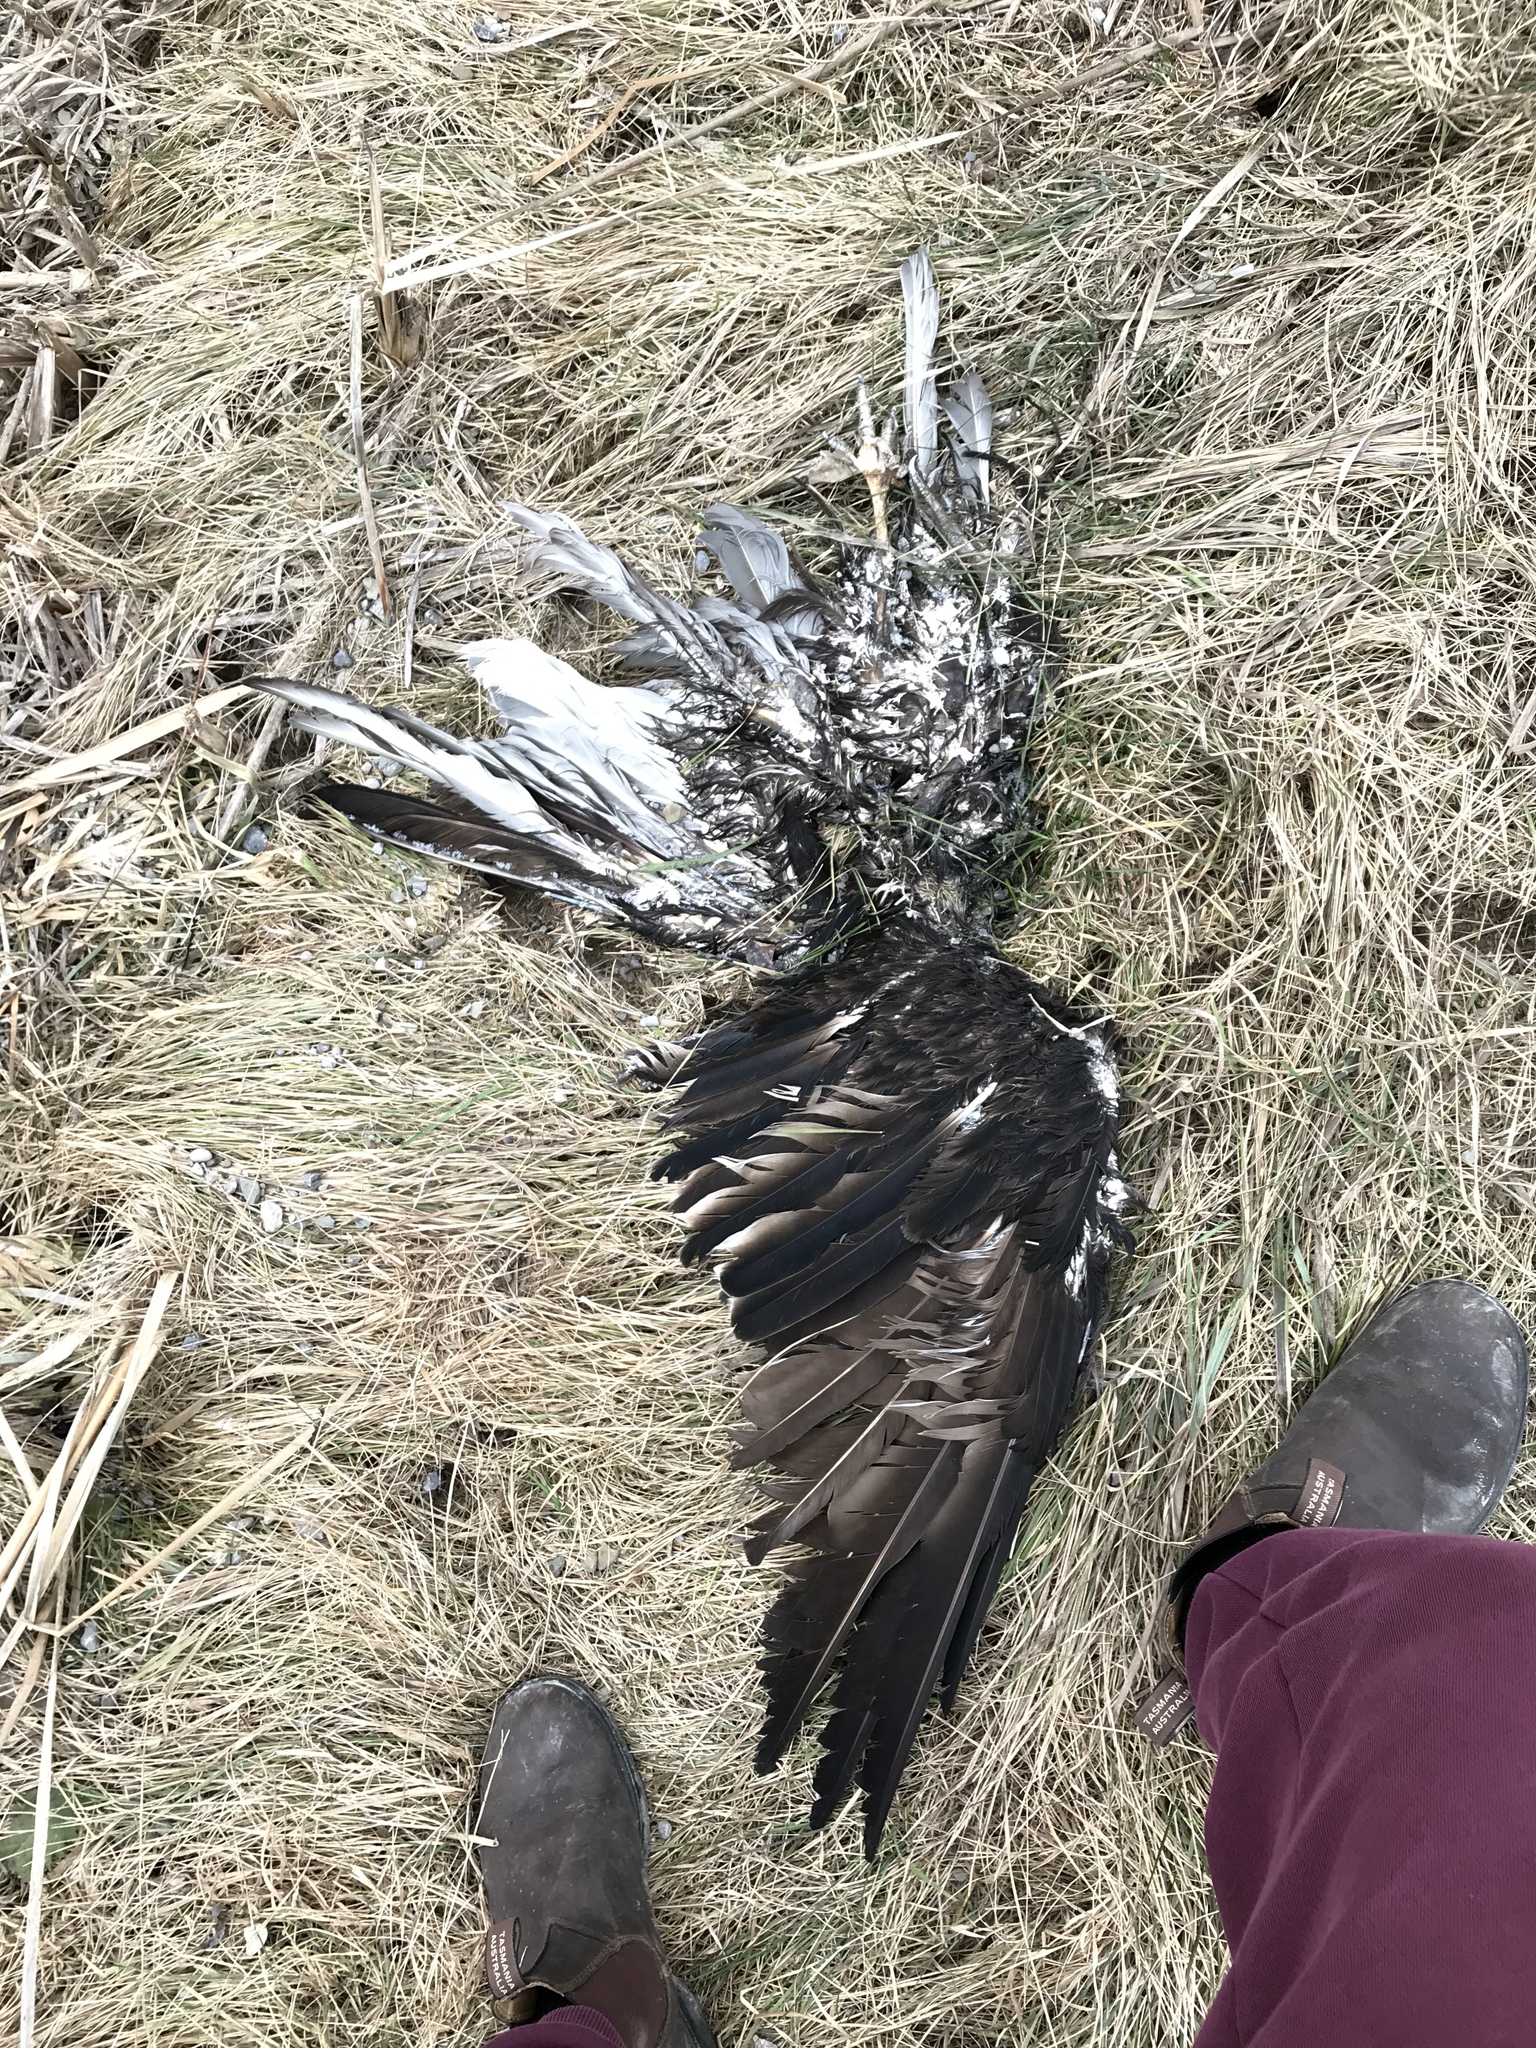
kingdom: Animalia
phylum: Chordata
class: Aves
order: Accipitriformes
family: Cathartidae
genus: Cathartes
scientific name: Cathartes aura
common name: Turkey vulture
